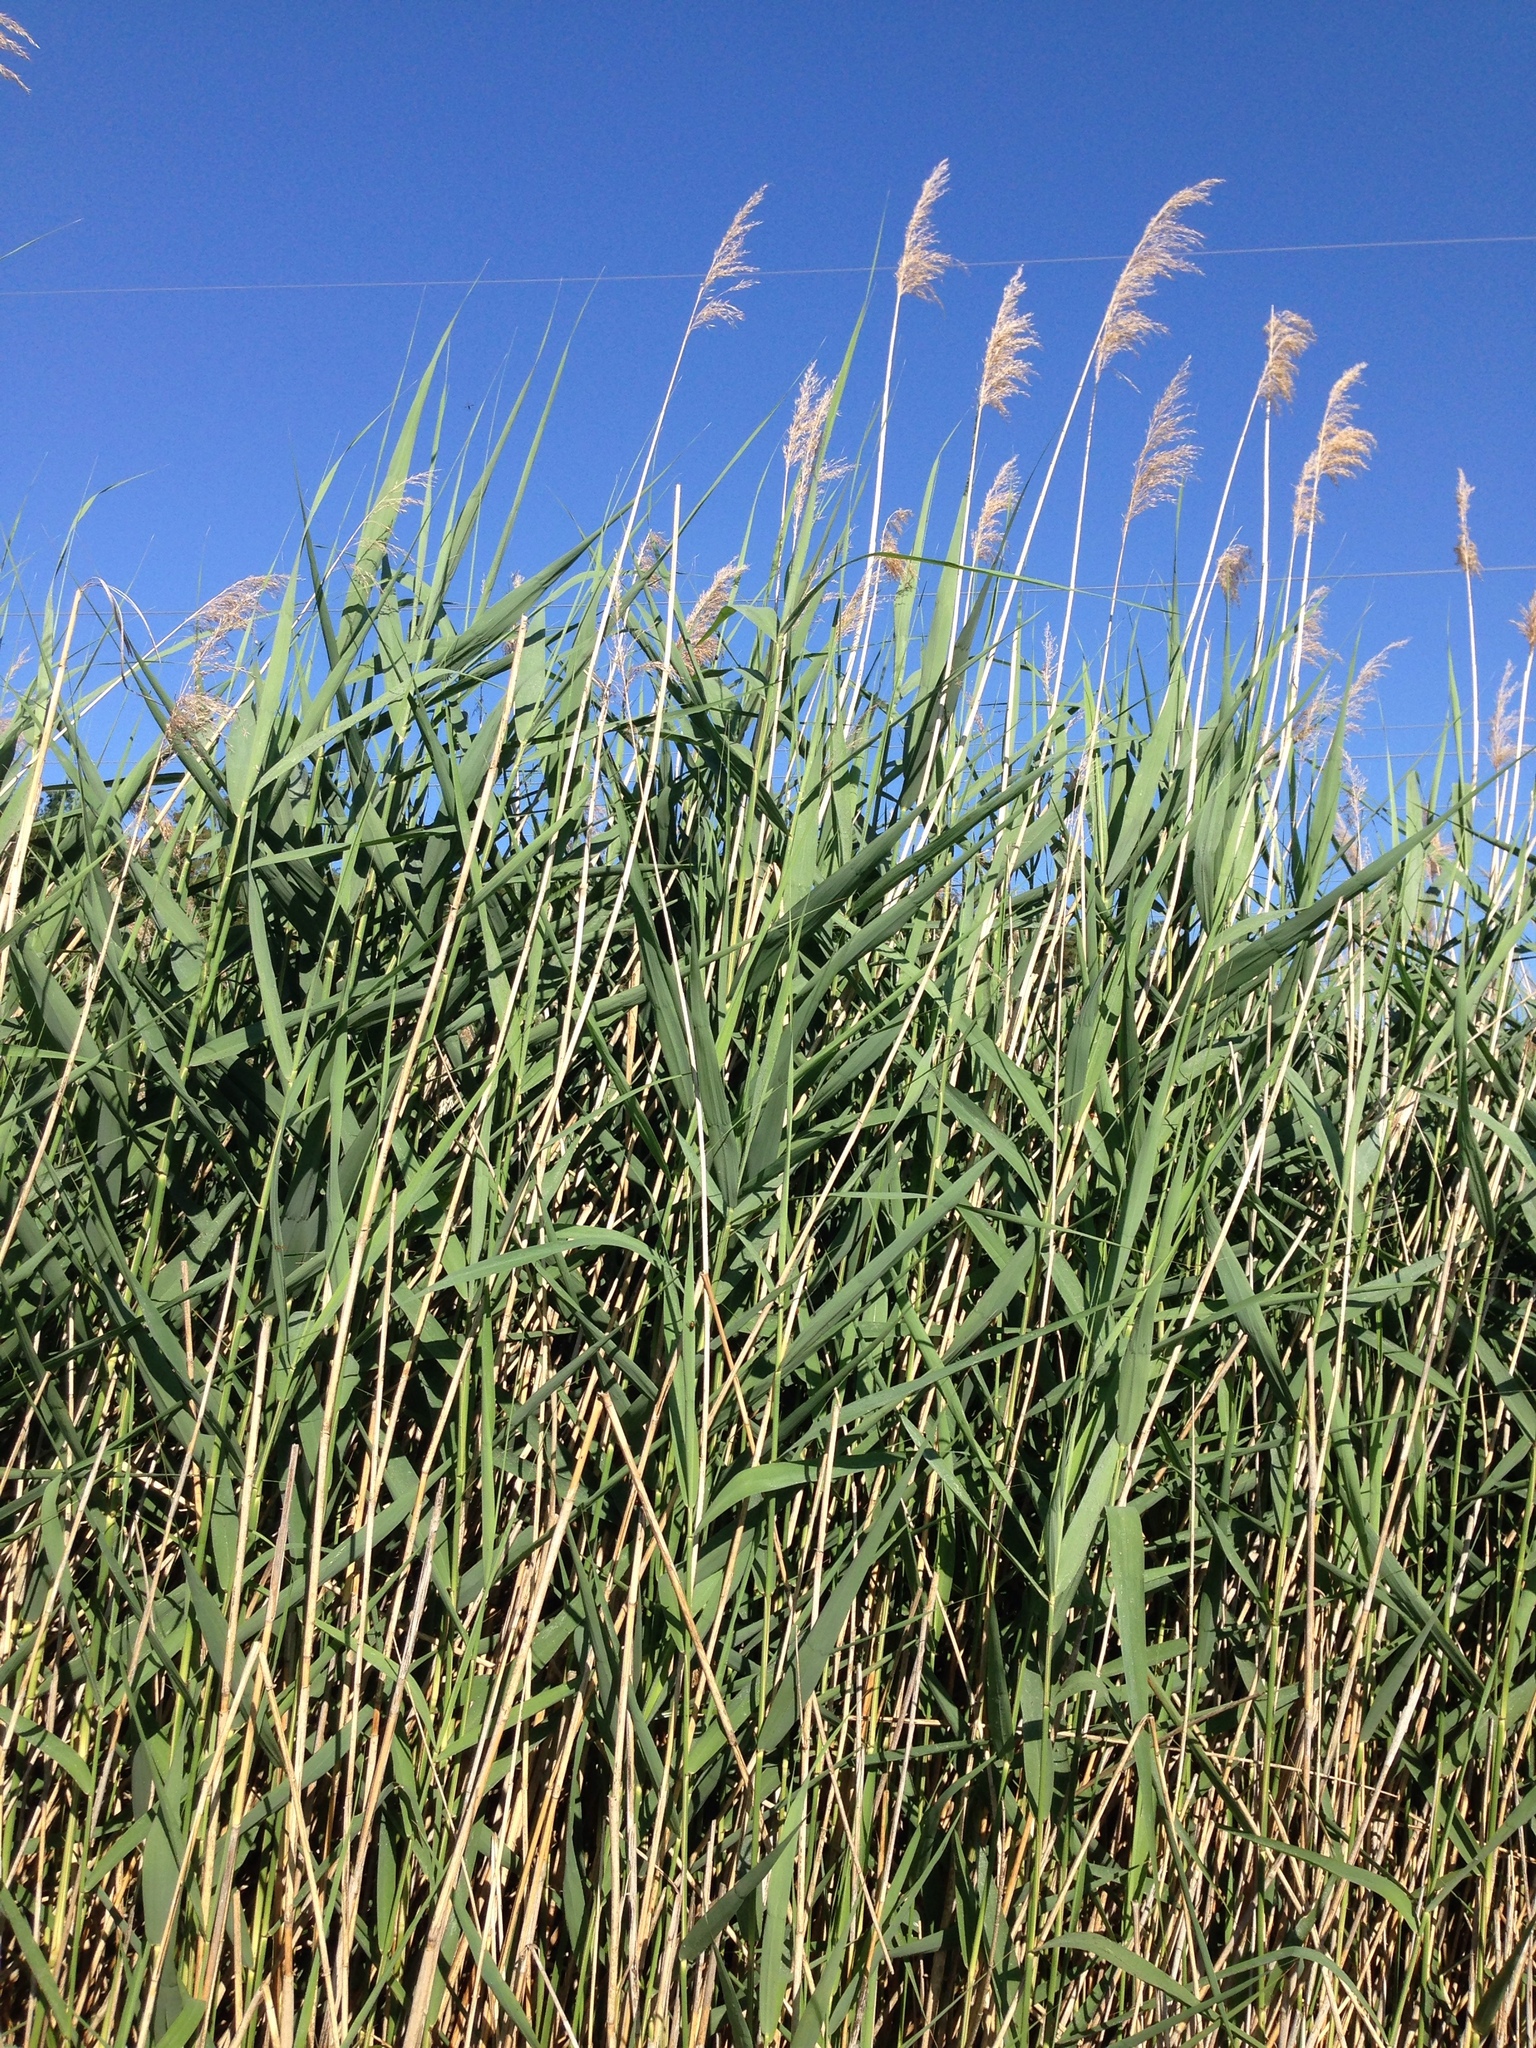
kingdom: Plantae
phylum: Tracheophyta
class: Liliopsida
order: Poales
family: Poaceae
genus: Phragmites
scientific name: Phragmites australis
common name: Common reed
